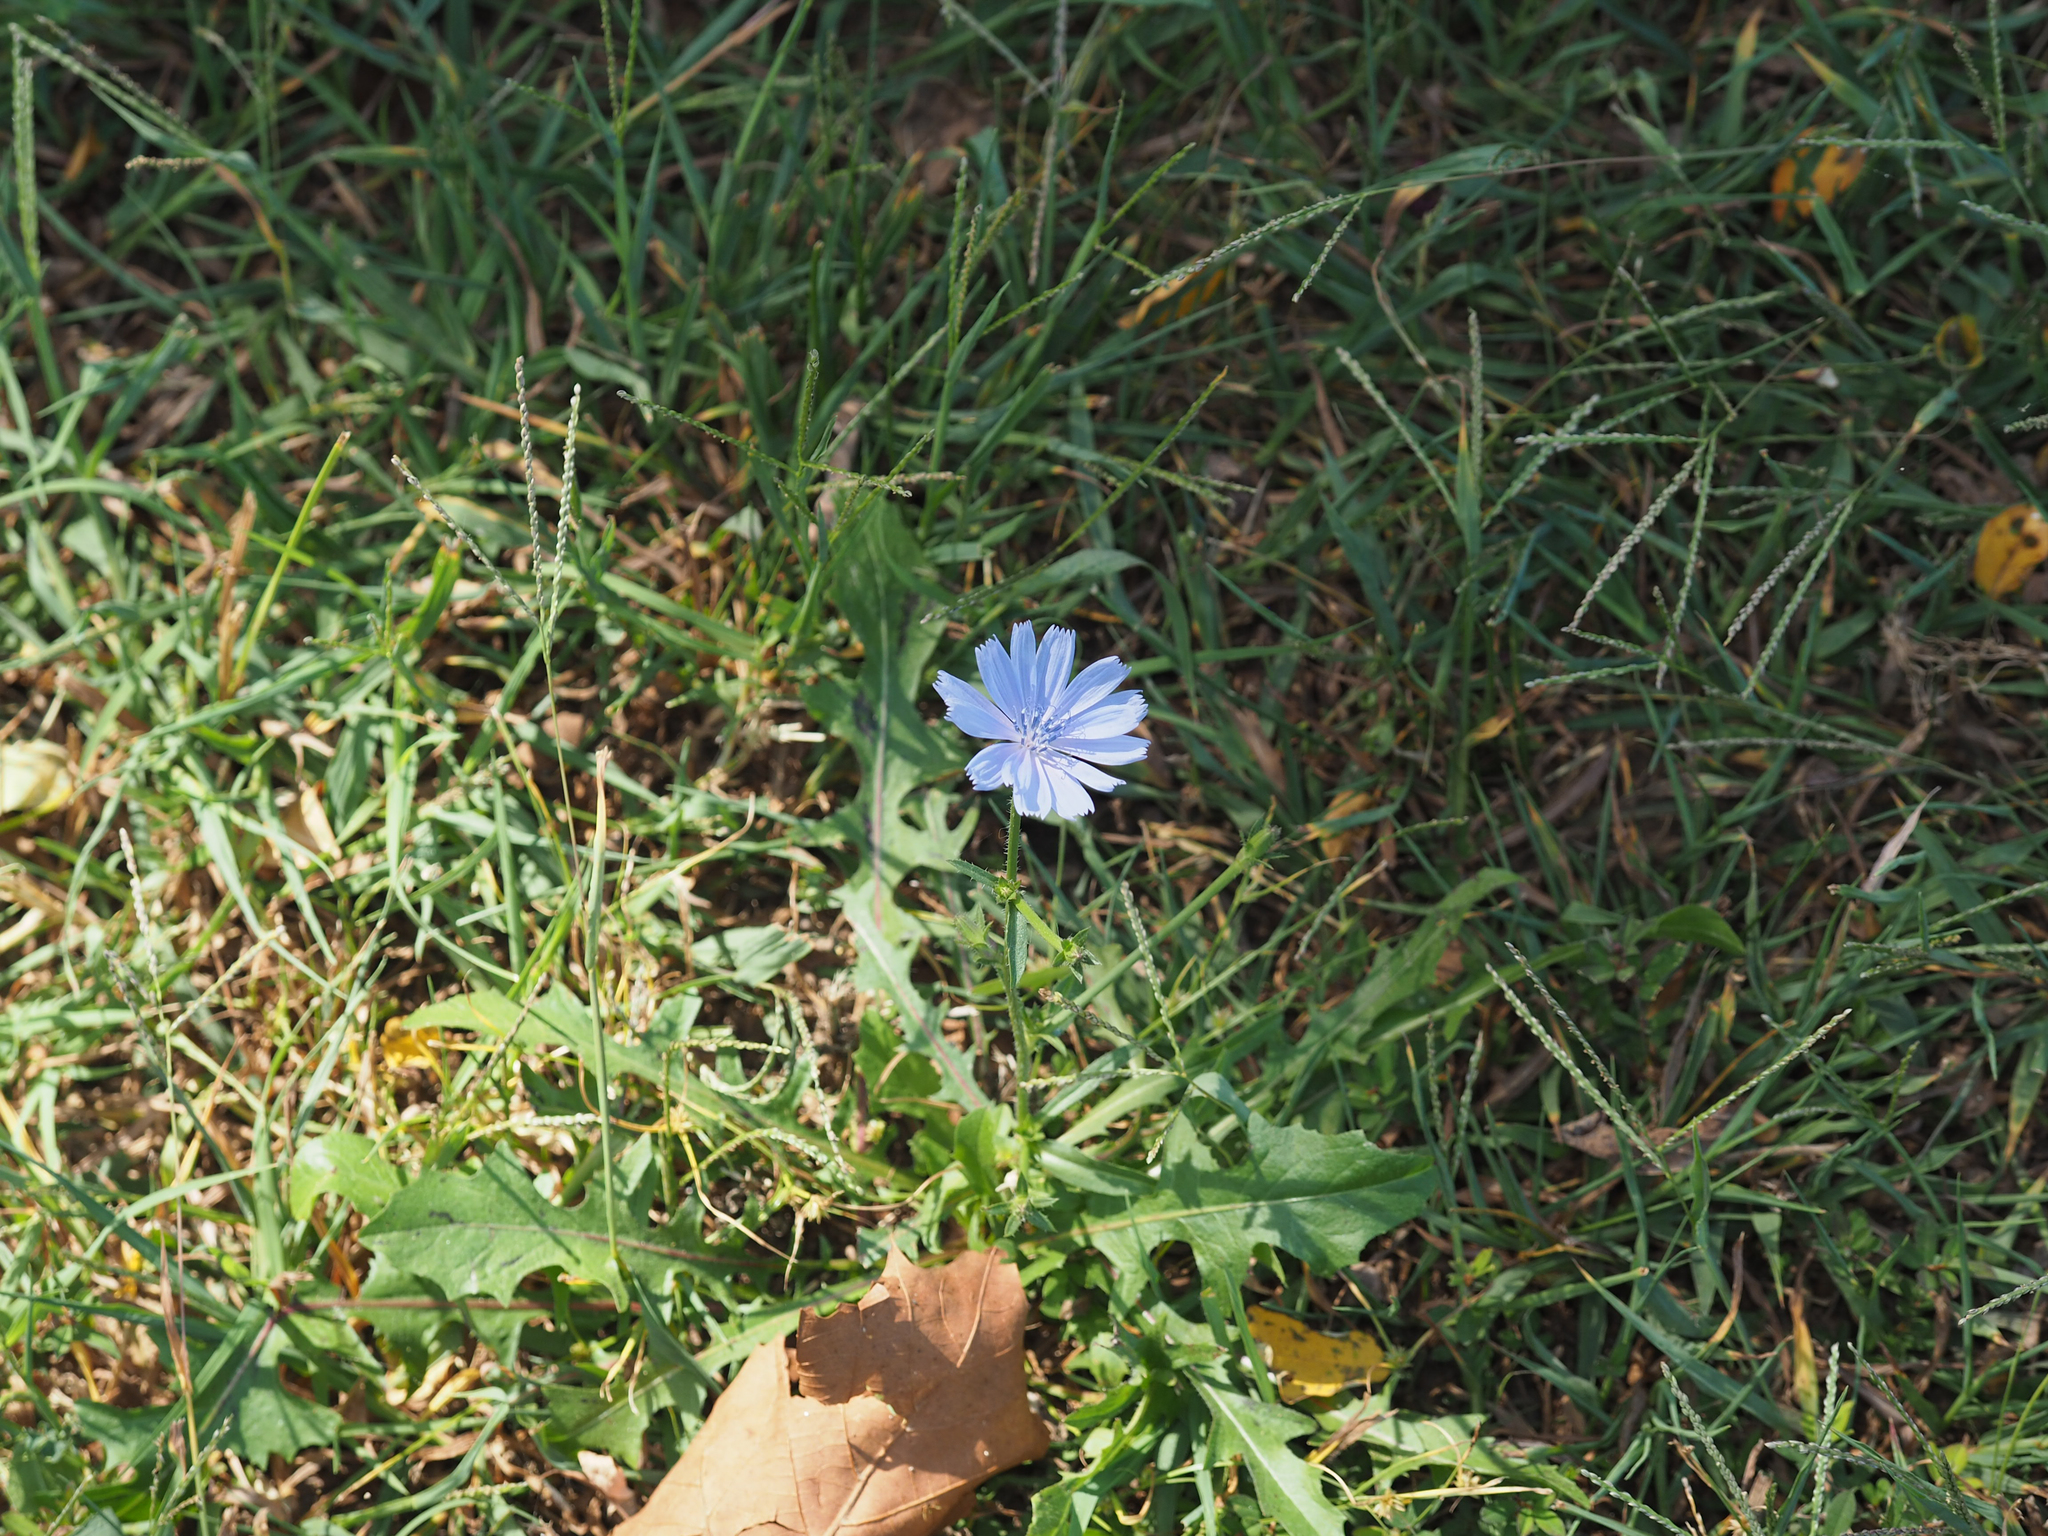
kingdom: Plantae
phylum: Tracheophyta
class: Magnoliopsida
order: Asterales
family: Asteraceae
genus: Cichorium
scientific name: Cichorium intybus
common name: Chicory
